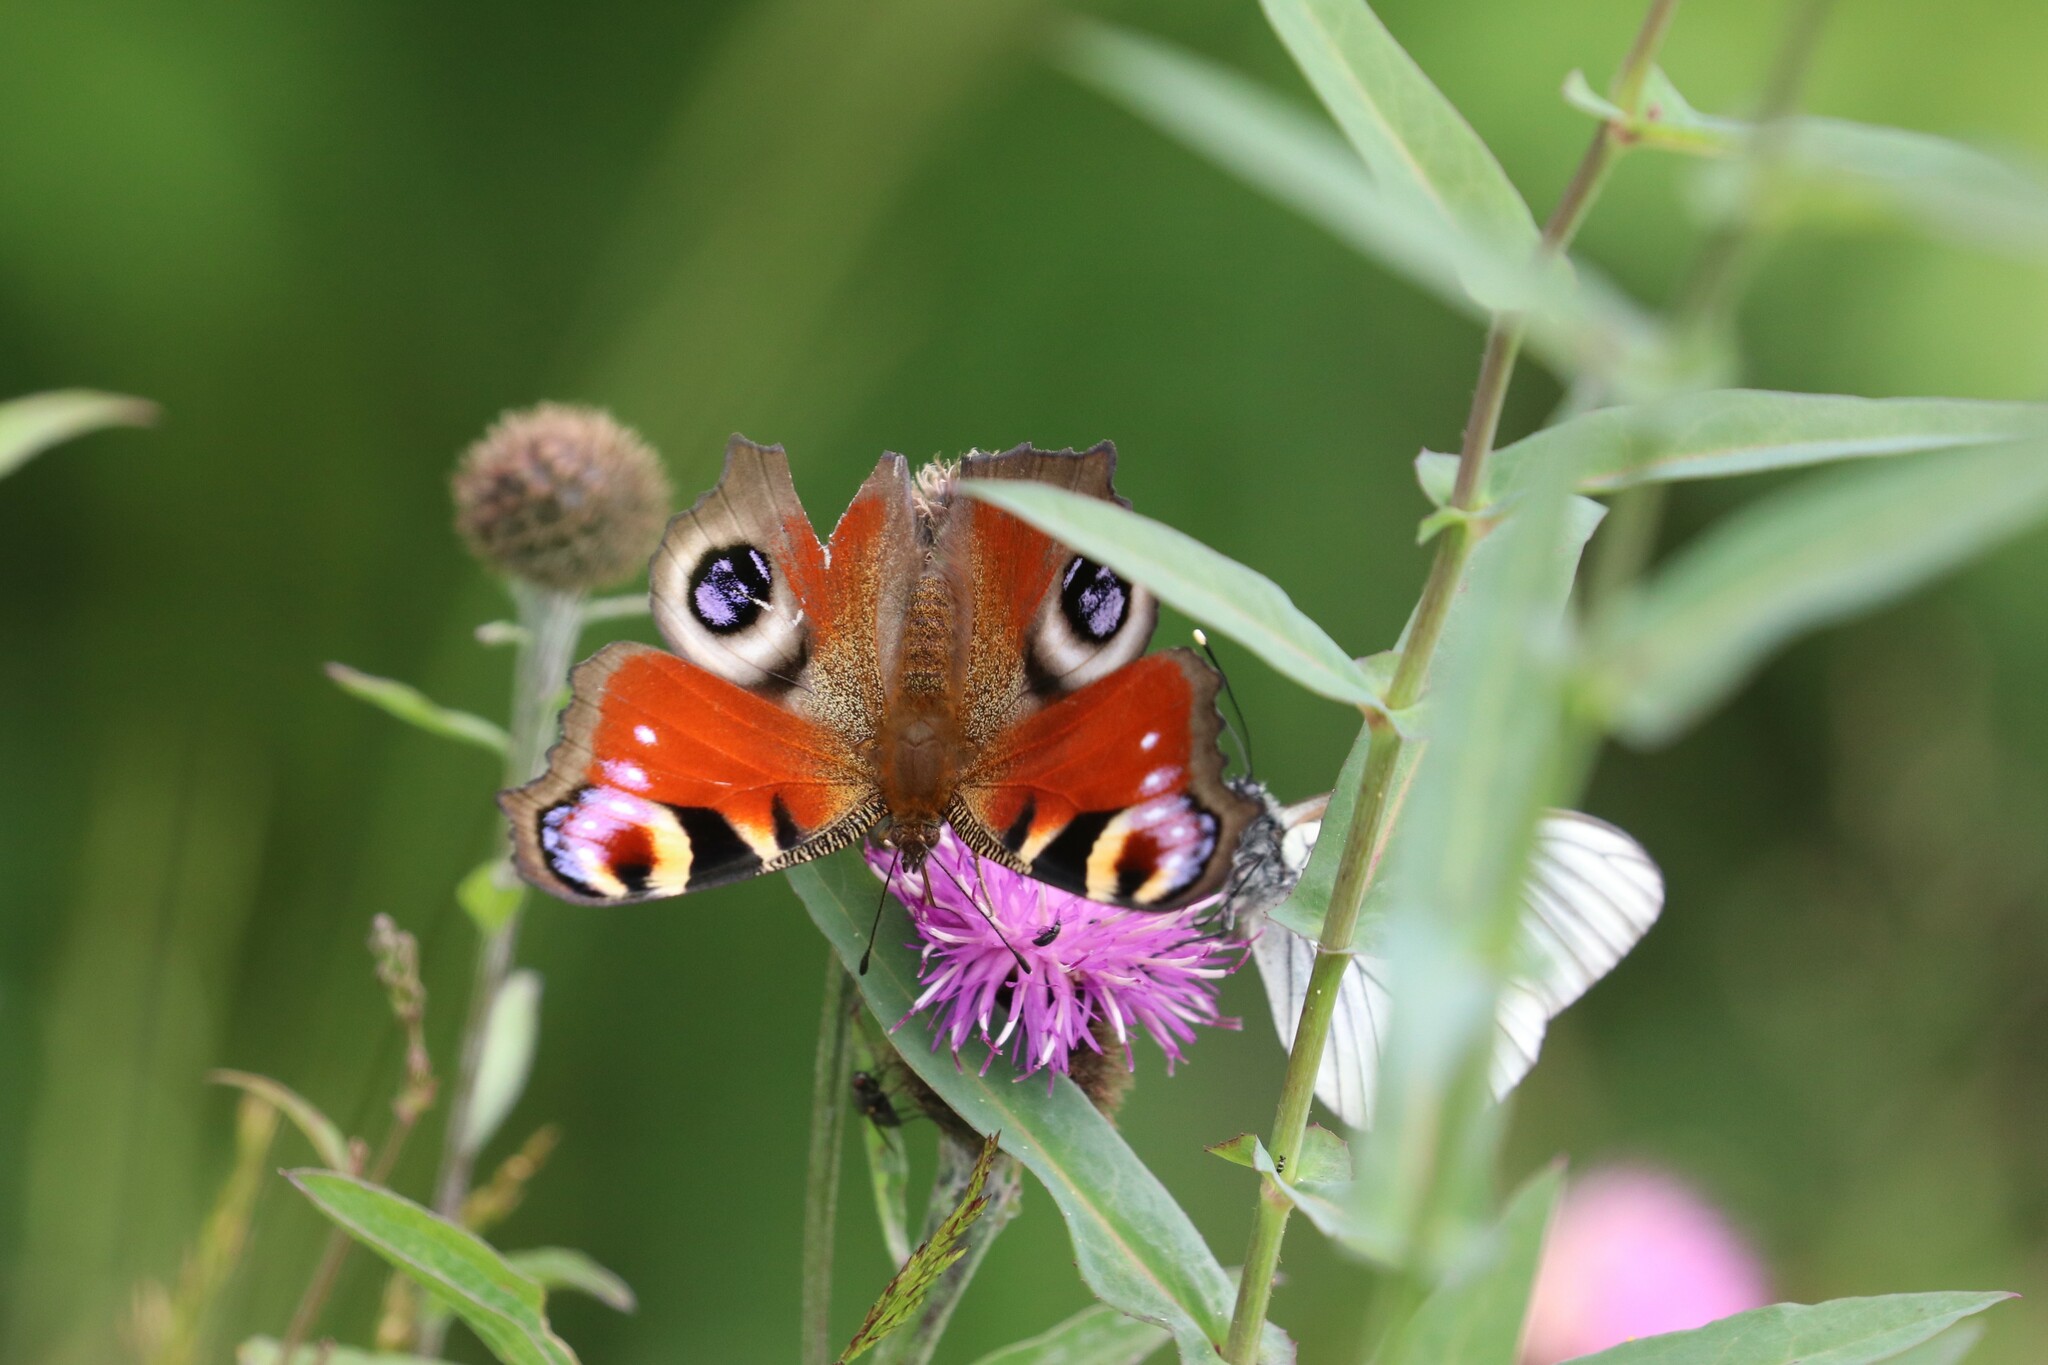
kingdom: Animalia
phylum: Arthropoda
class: Insecta
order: Lepidoptera
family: Nymphalidae
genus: Aglais
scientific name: Aglais io
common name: Peacock
